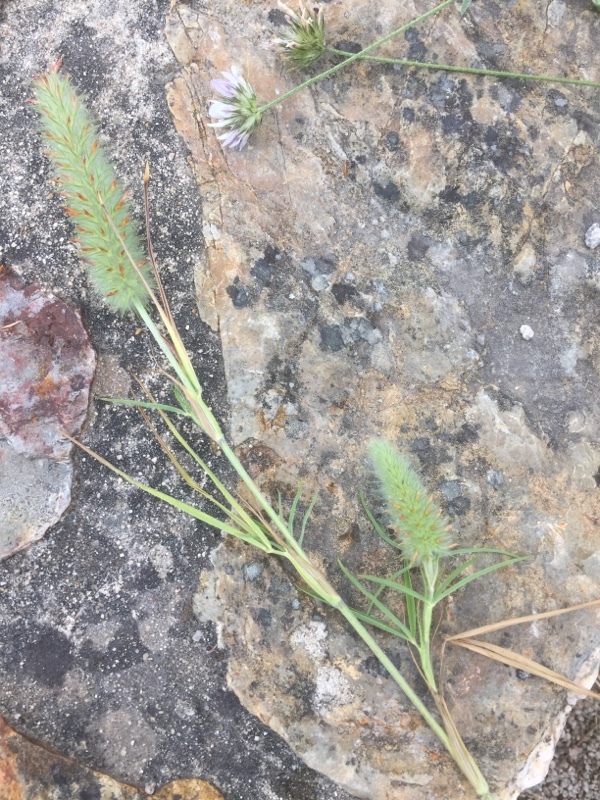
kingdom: Plantae
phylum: Tracheophyta
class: Magnoliopsida
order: Fabales
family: Fabaceae
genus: Trifolium
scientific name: Trifolium angustifolium
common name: Narrow clover
